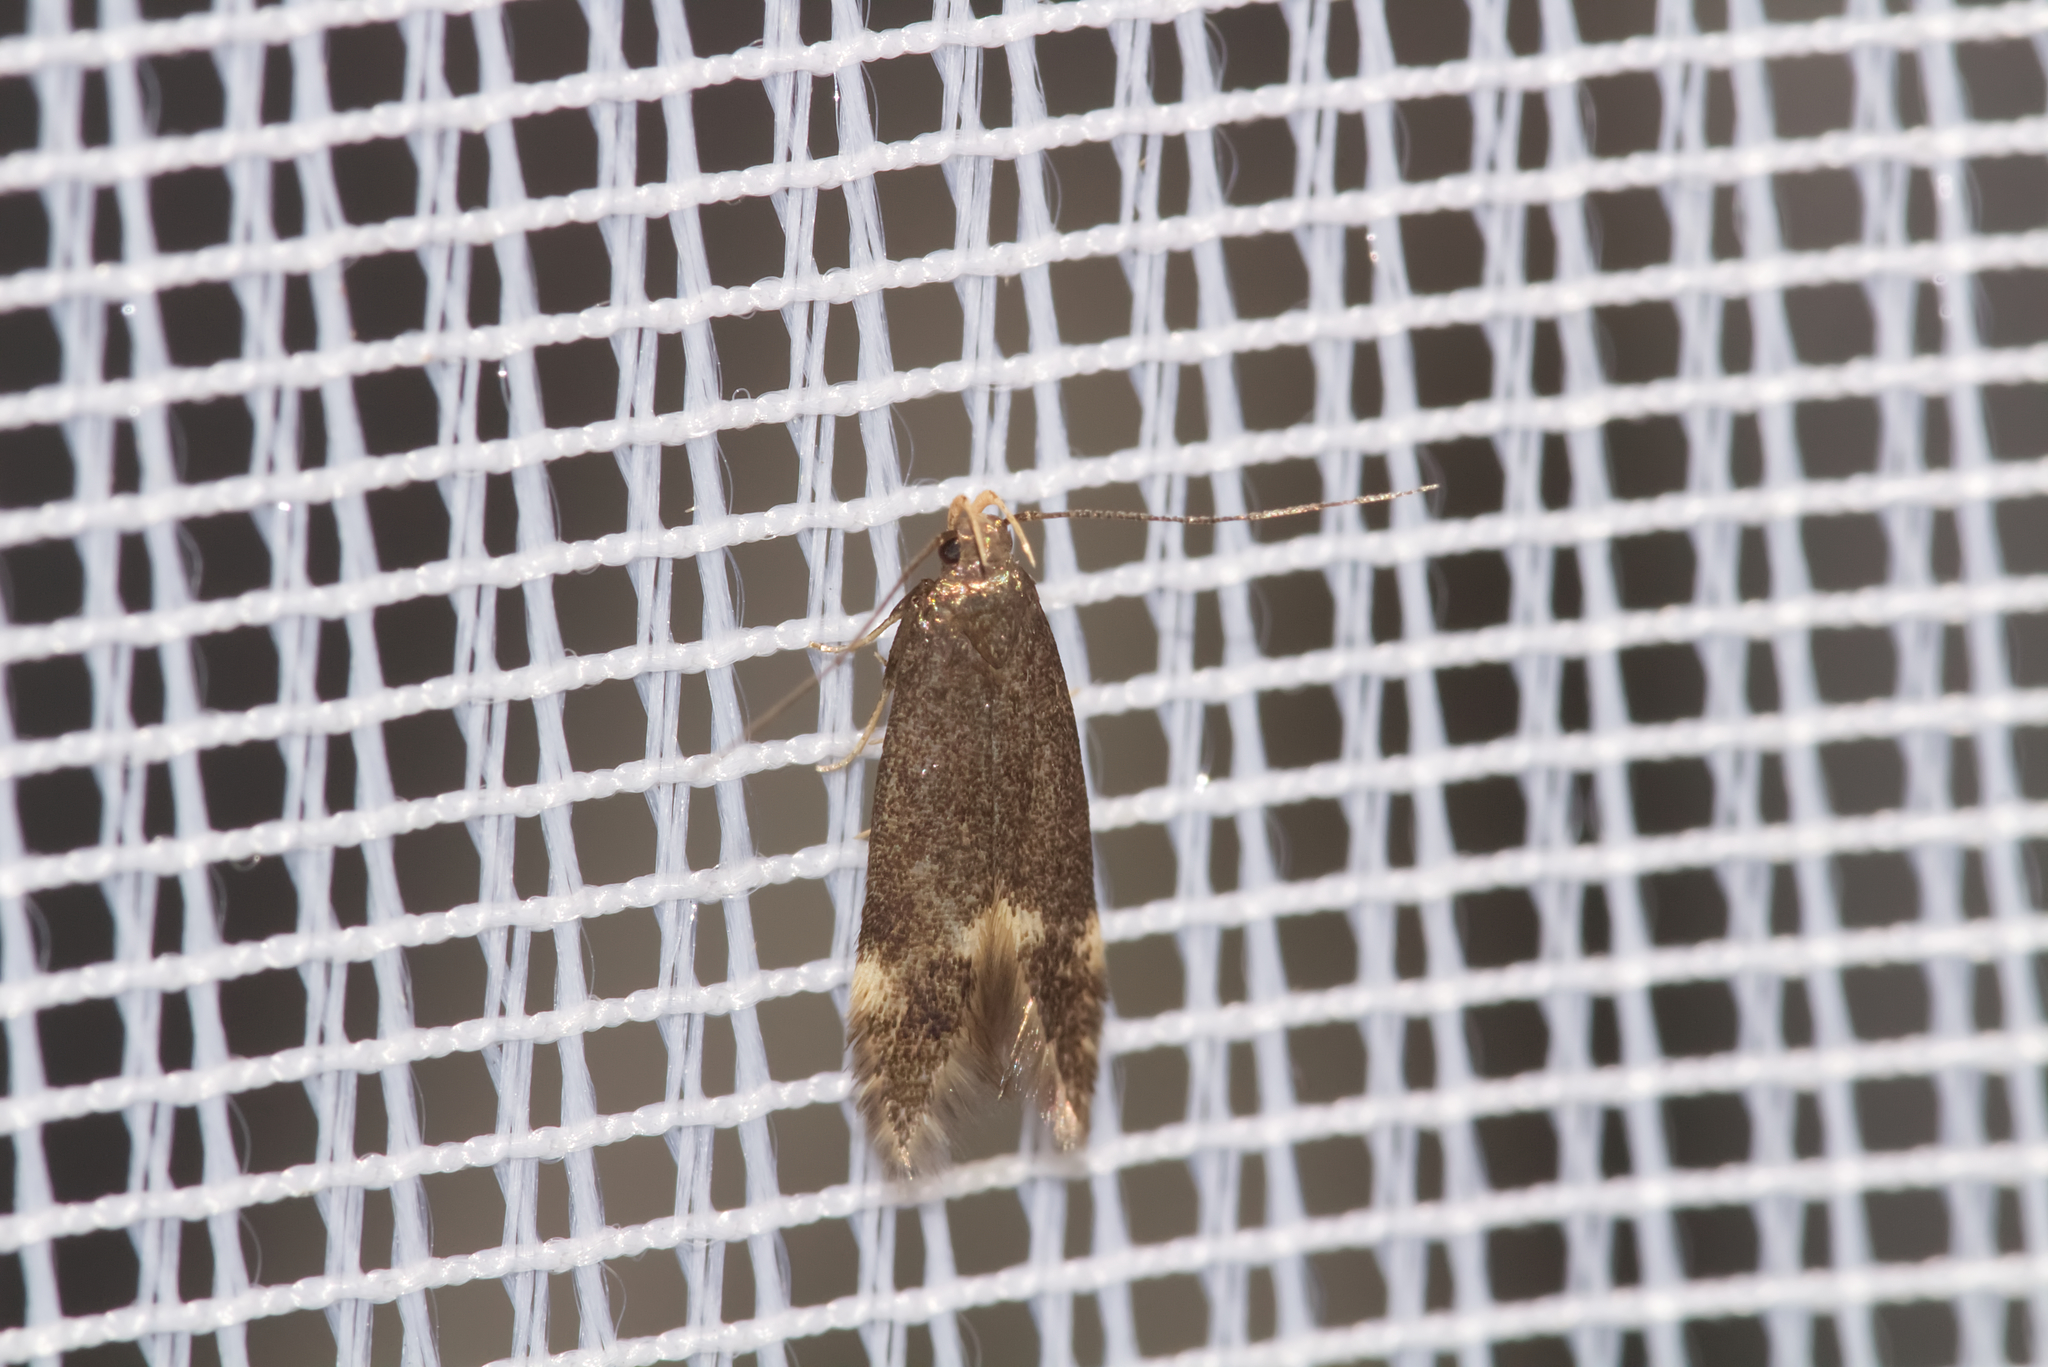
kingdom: Animalia
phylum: Arthropoda
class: Insecta
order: Lepidoptera
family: Gelechiidae
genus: Oxypteryx
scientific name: Oxypteryx atrella
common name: Two-spotted neb
